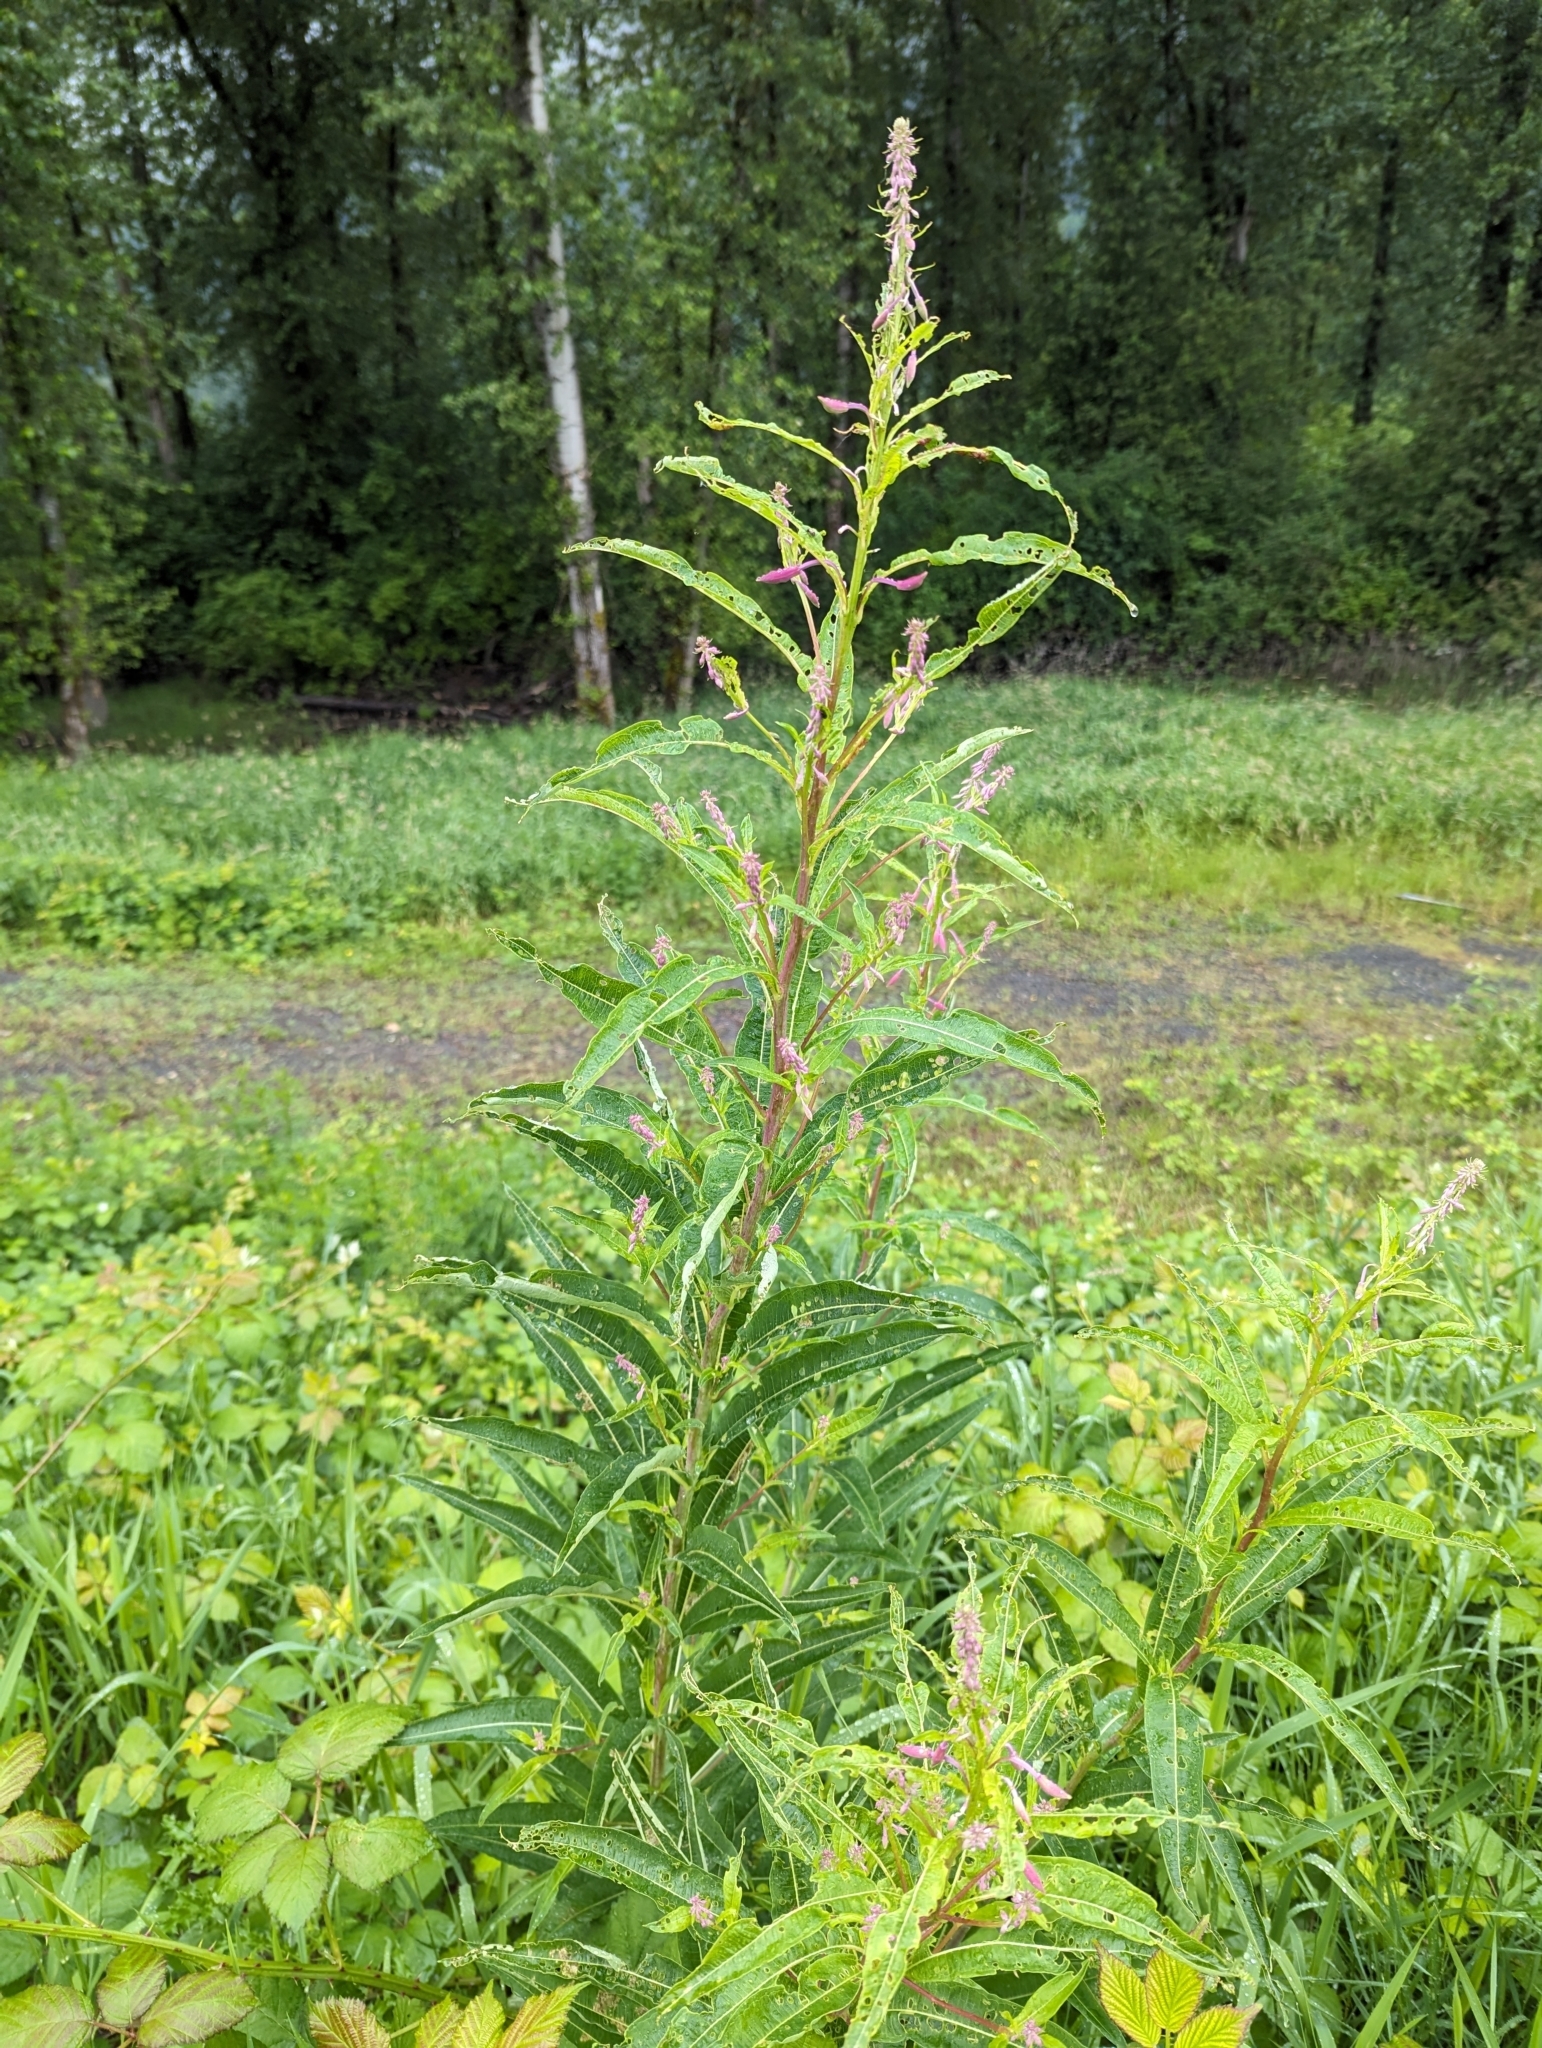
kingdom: Plantae
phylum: Tracheophyta
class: Magnoliopsida
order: Myrtales
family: Onagraceae
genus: Chamaenerion
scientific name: Chamaenerion angustifolium
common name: Fireweed
